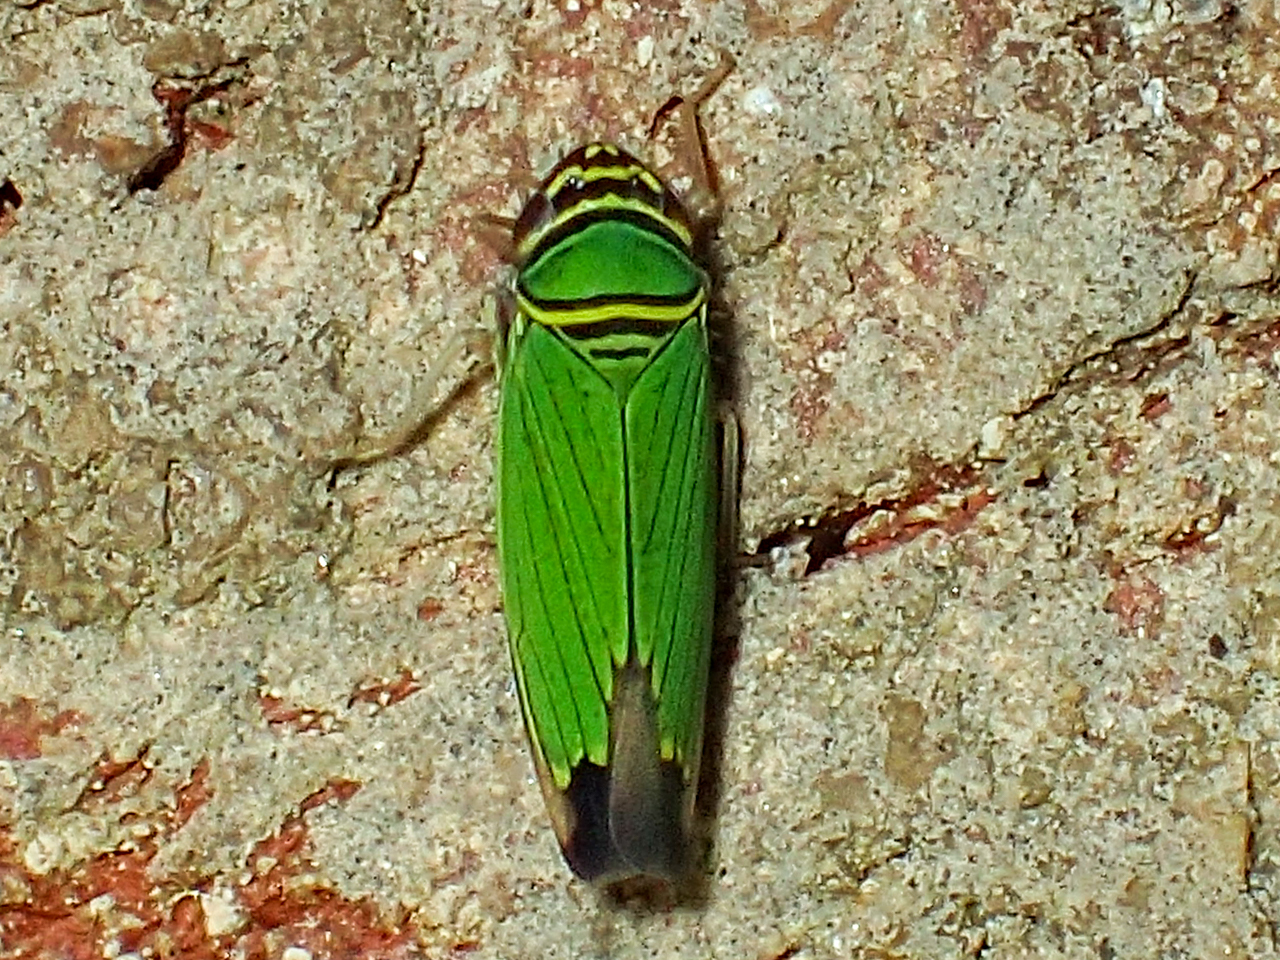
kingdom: Animalia
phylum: Arthropoda
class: Insecta
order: Hemiptera
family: Cicadellidae
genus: Tylozygus
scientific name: Tylozygus geometricus
